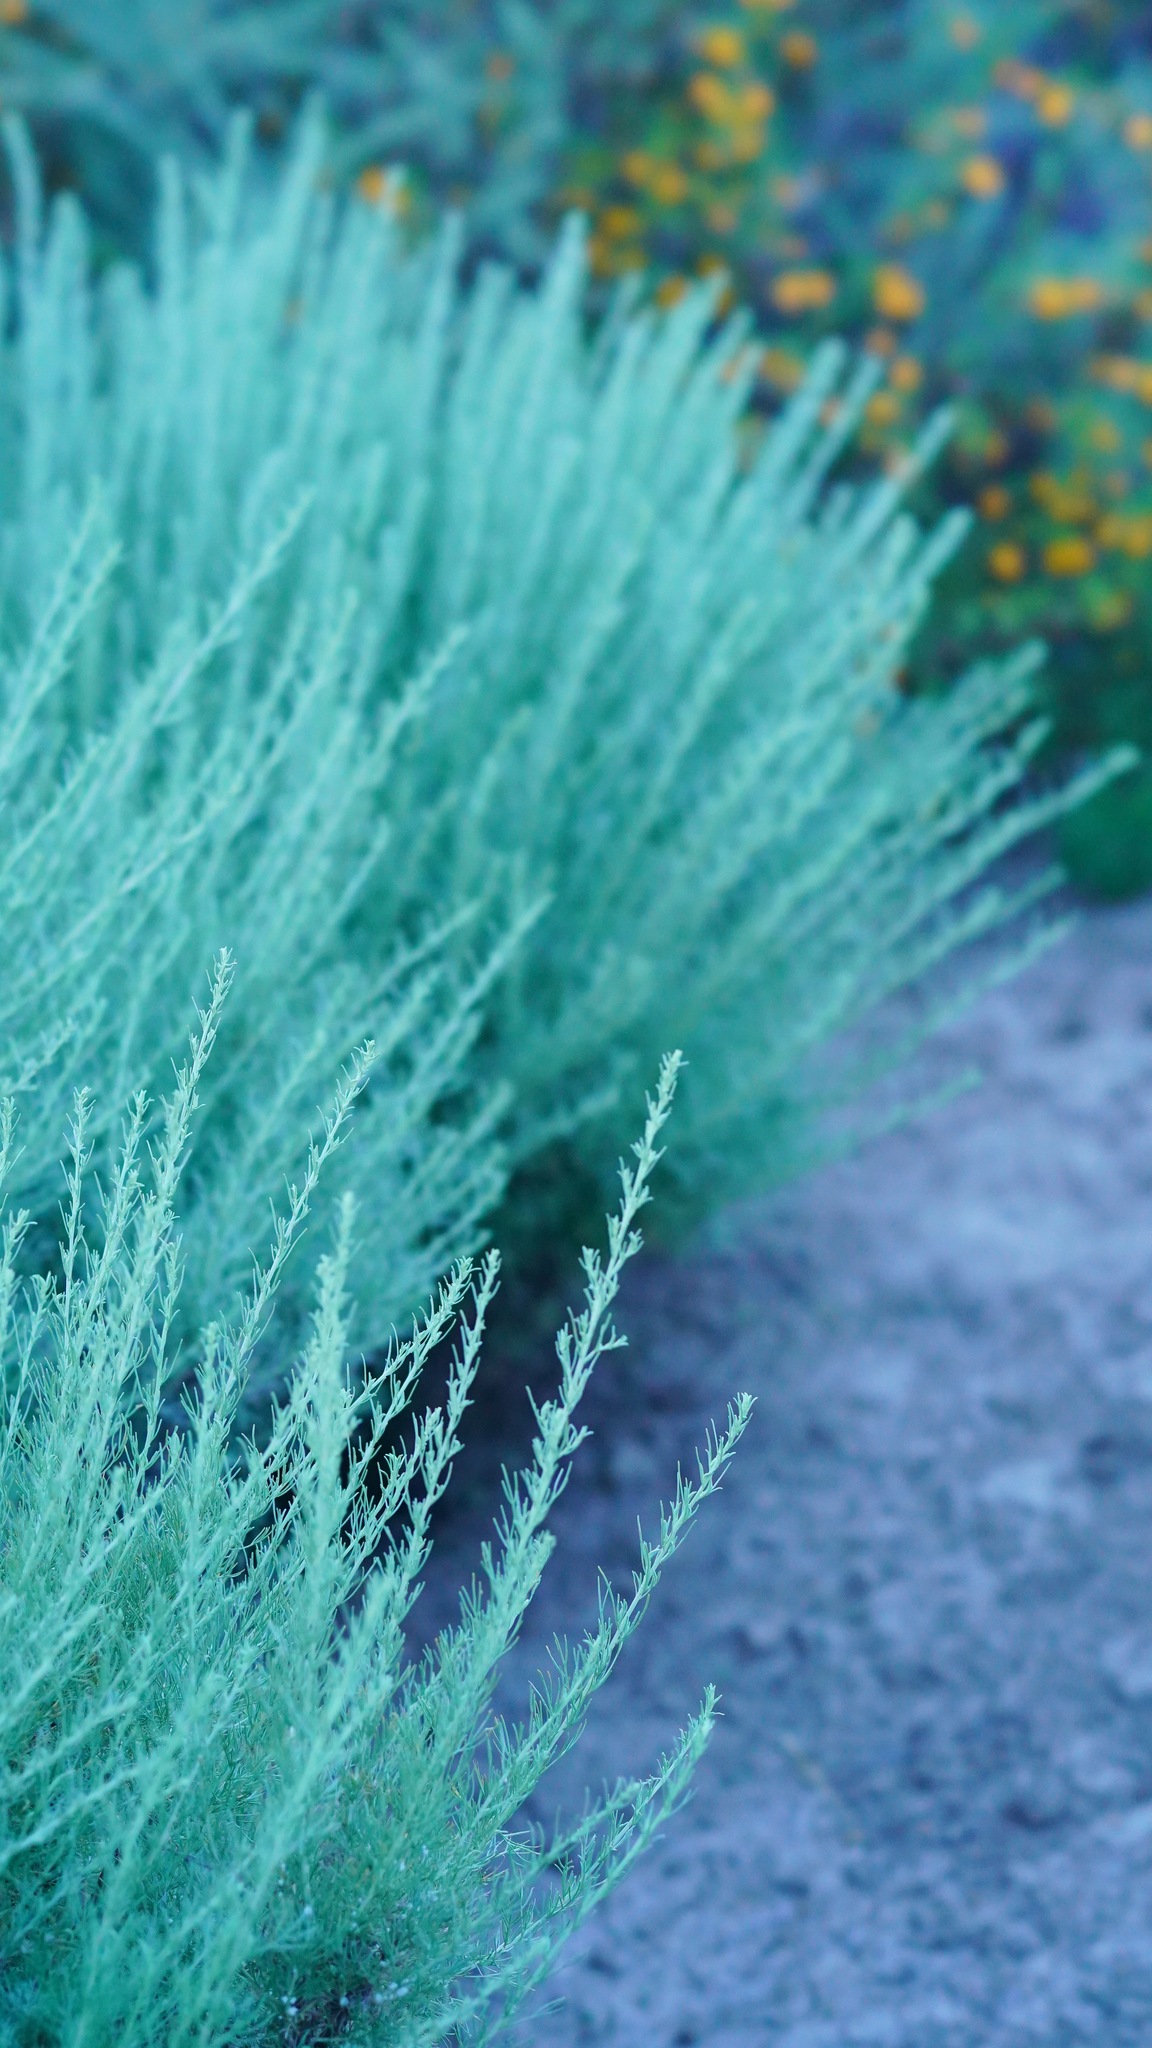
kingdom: Plantae
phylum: Tracheophyta
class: Magnoliopsida
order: Asterales
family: Asteraceae
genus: Artemisia
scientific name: Artemisia californica
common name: California sagebrush
